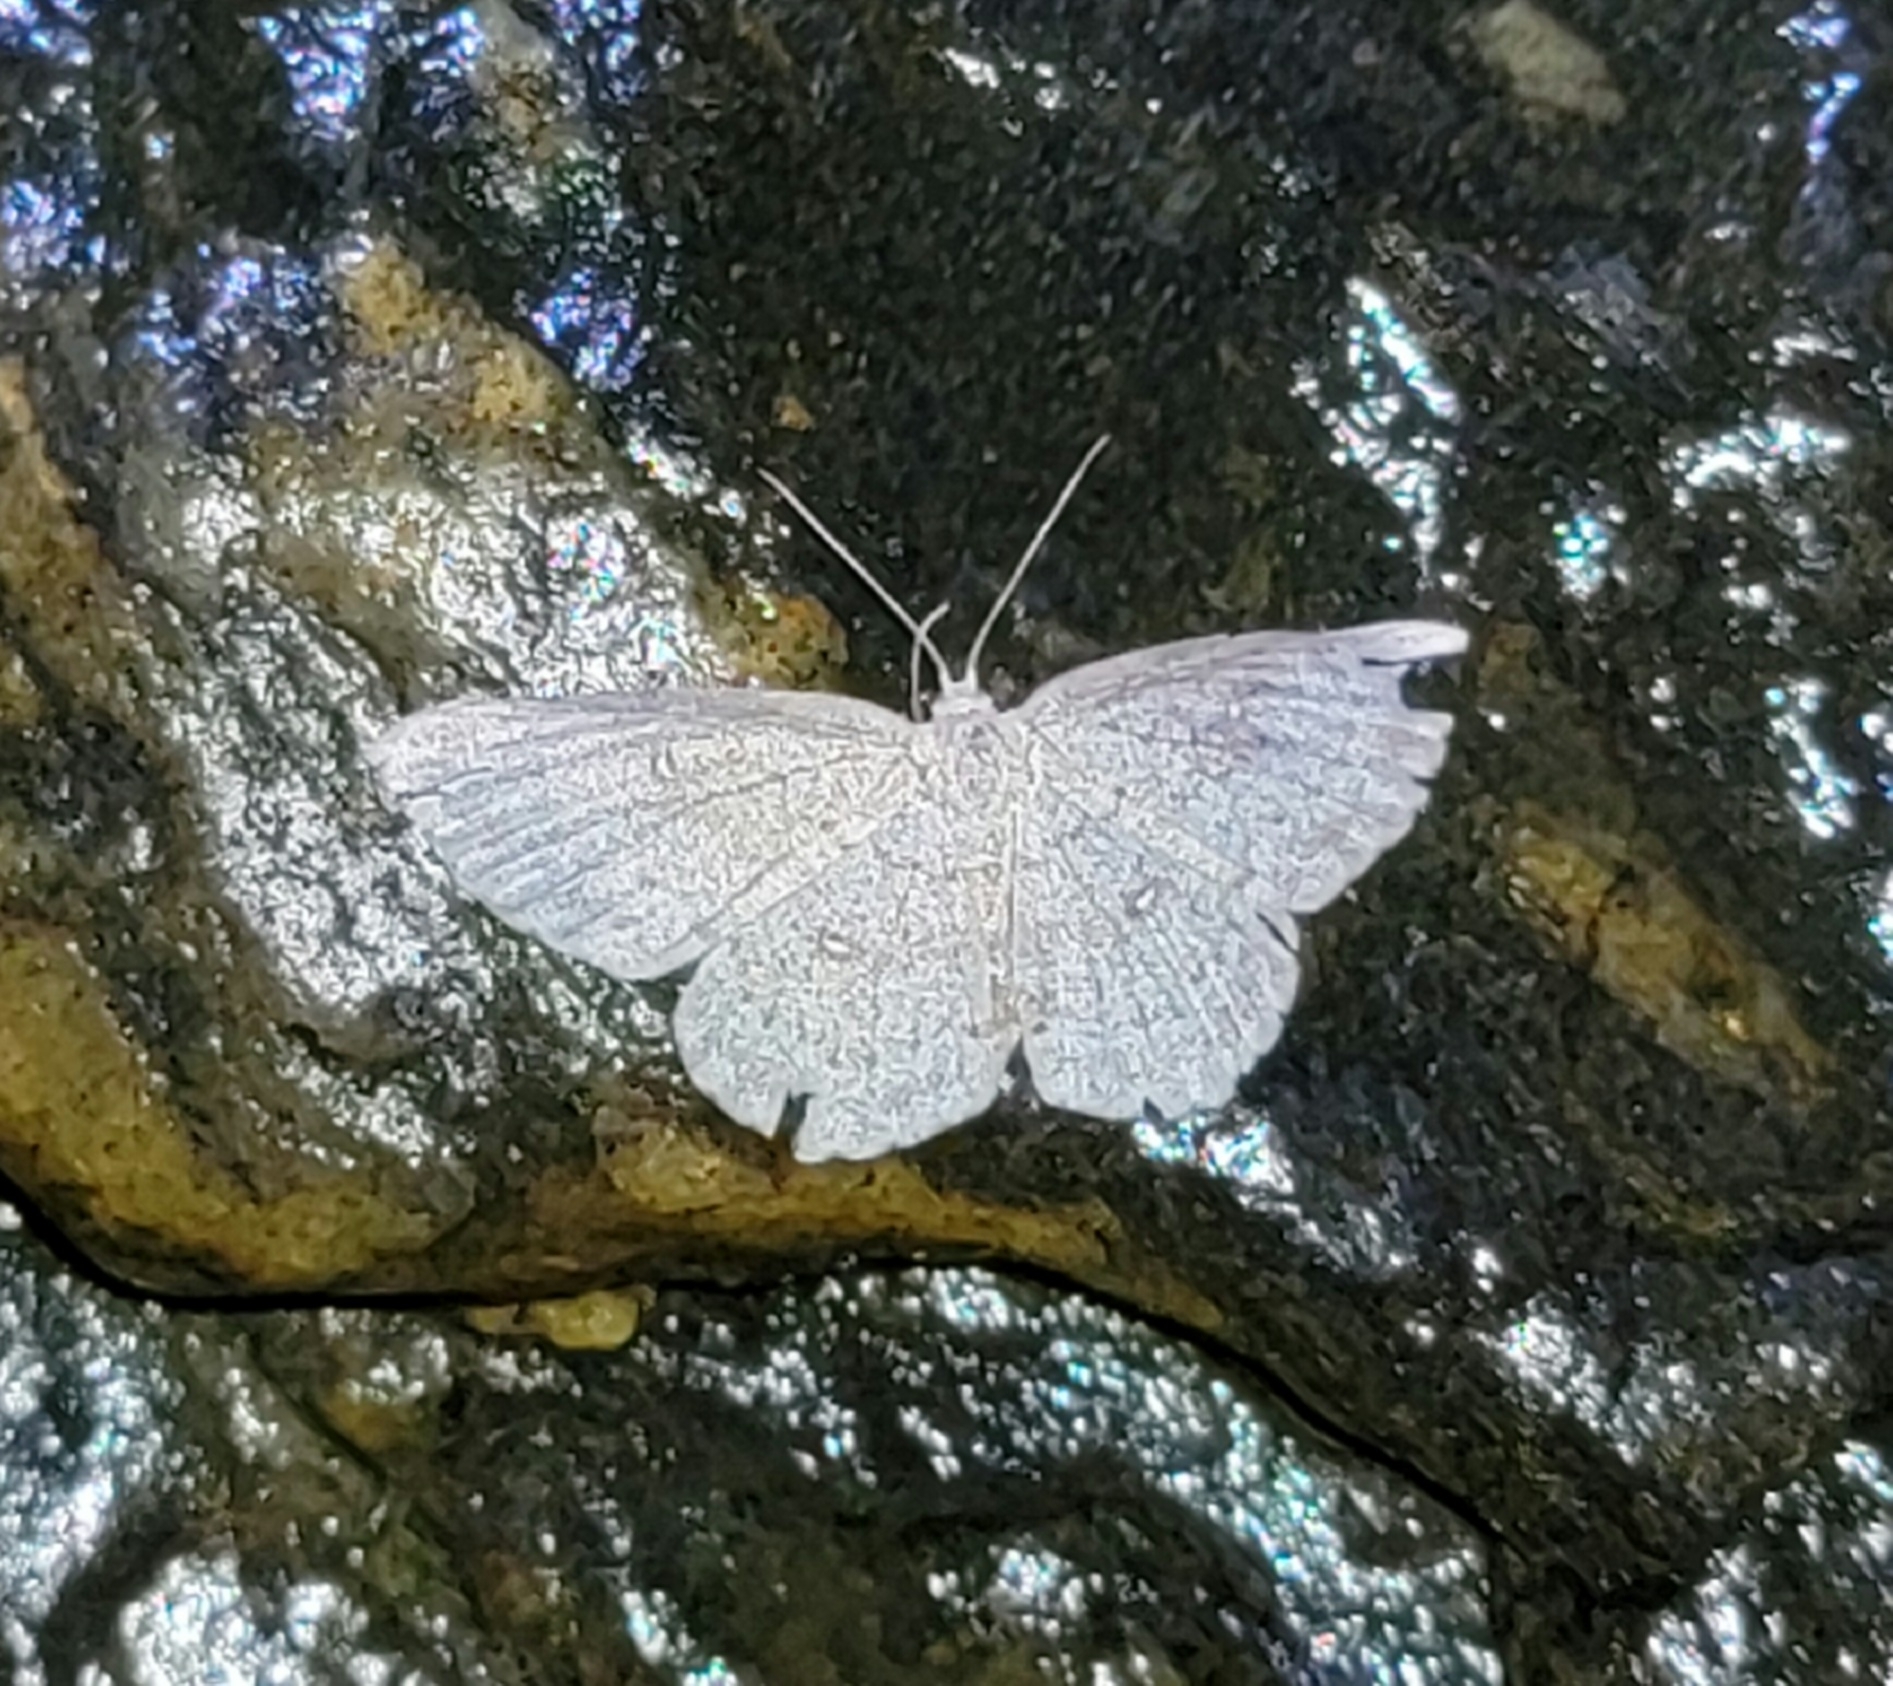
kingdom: Animalia
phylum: Arthropoda
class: Insecta
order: Lepidoptera
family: Geometridae
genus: Cyclophora
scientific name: Cyclophora pendulinaria
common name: Sweet fern geometer
